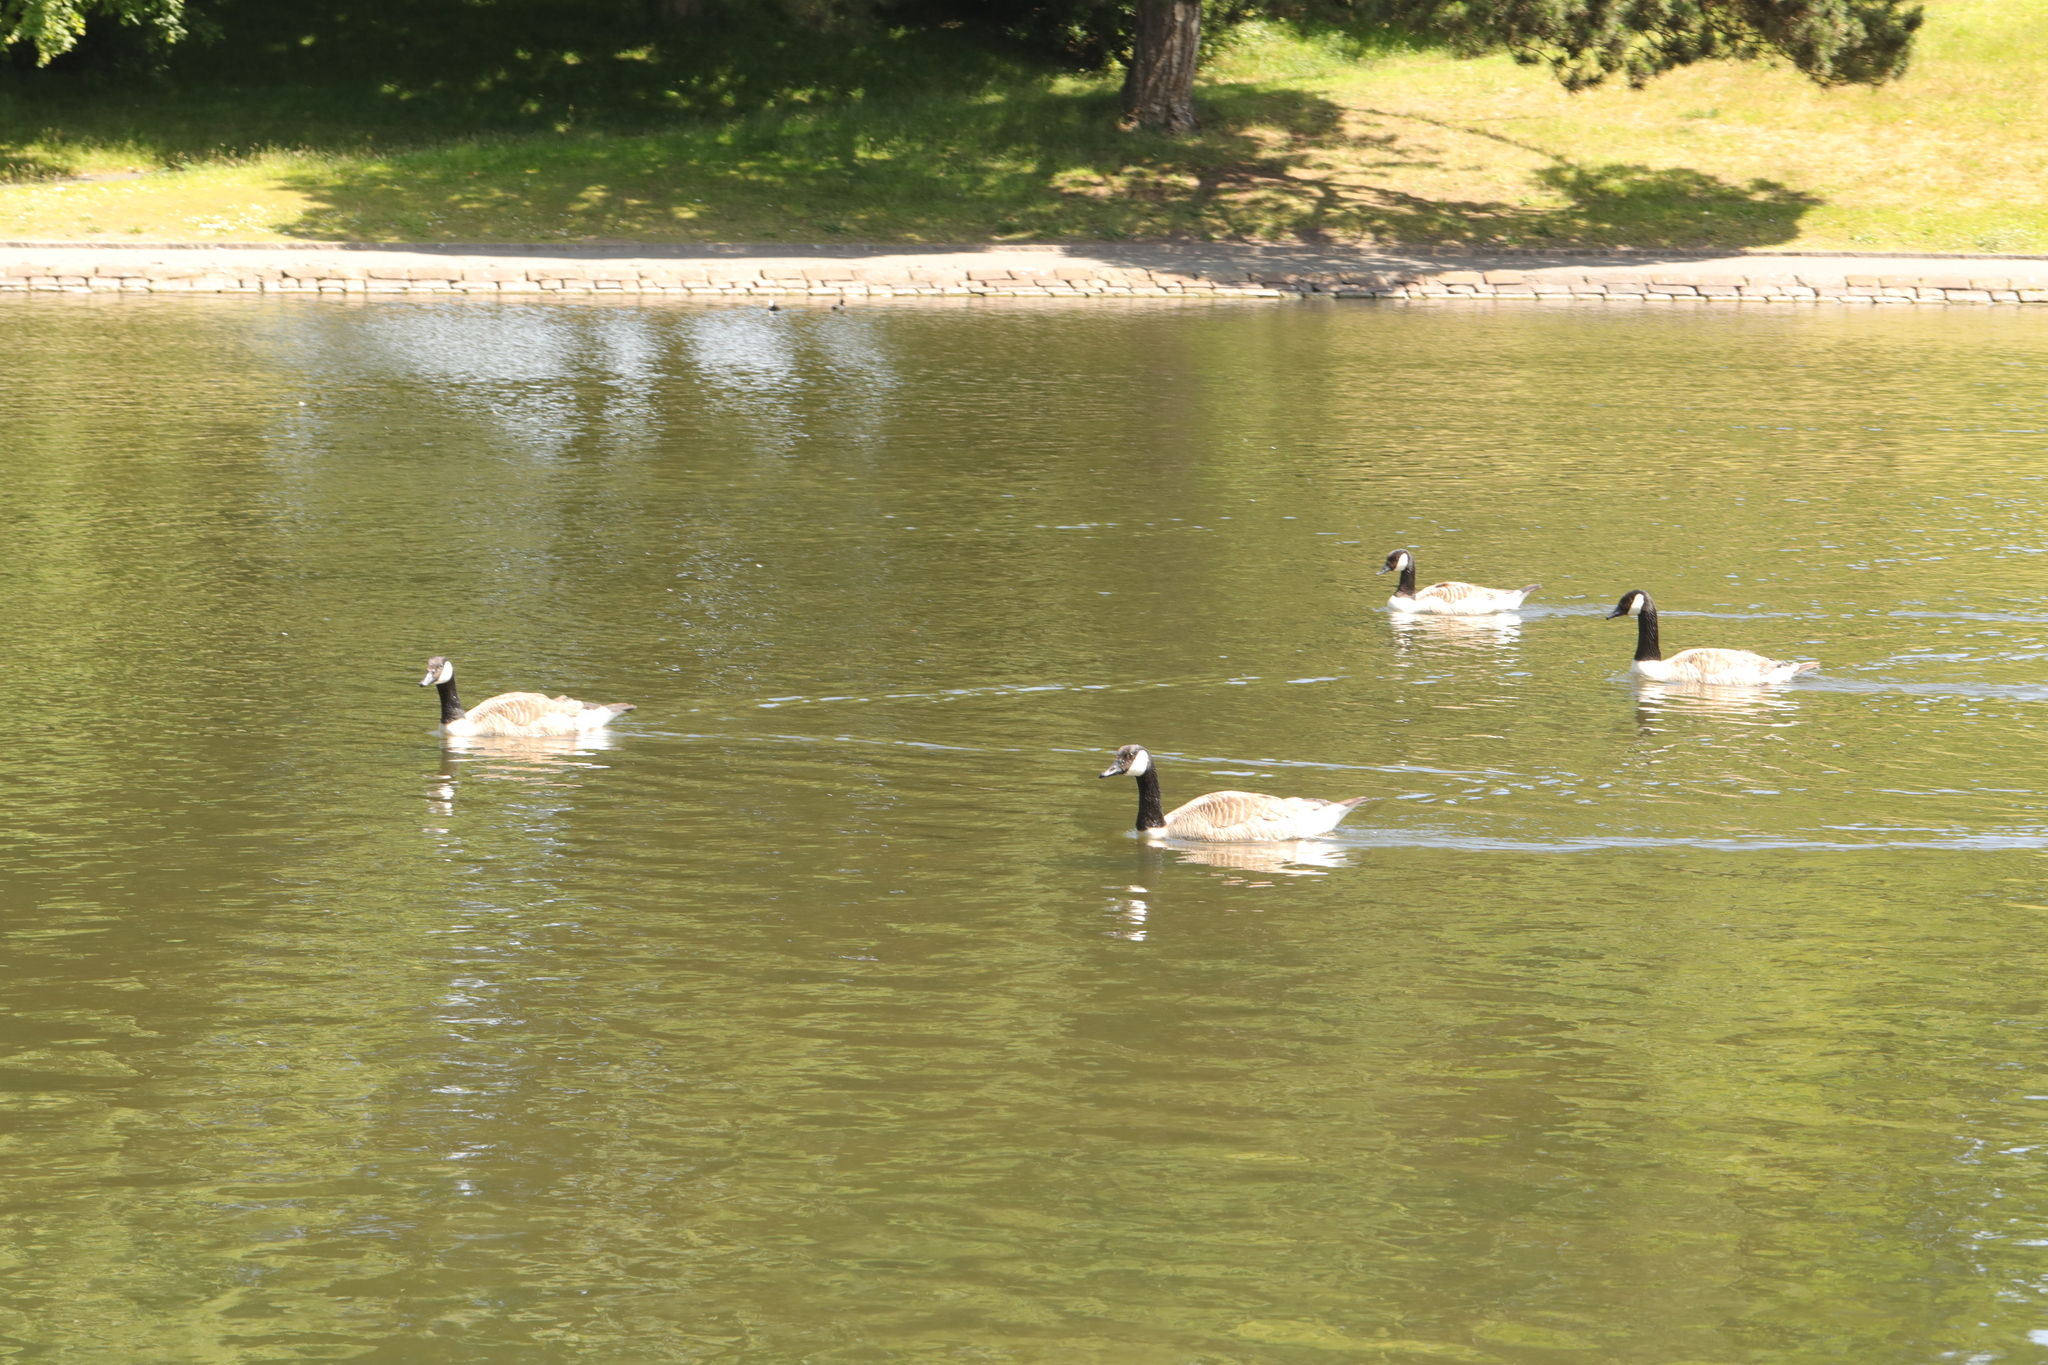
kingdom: Animalia
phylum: Chordata
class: Aves
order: Anseriformes
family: Anatidae
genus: Branta
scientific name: Branta canadensis
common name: Canada goose
